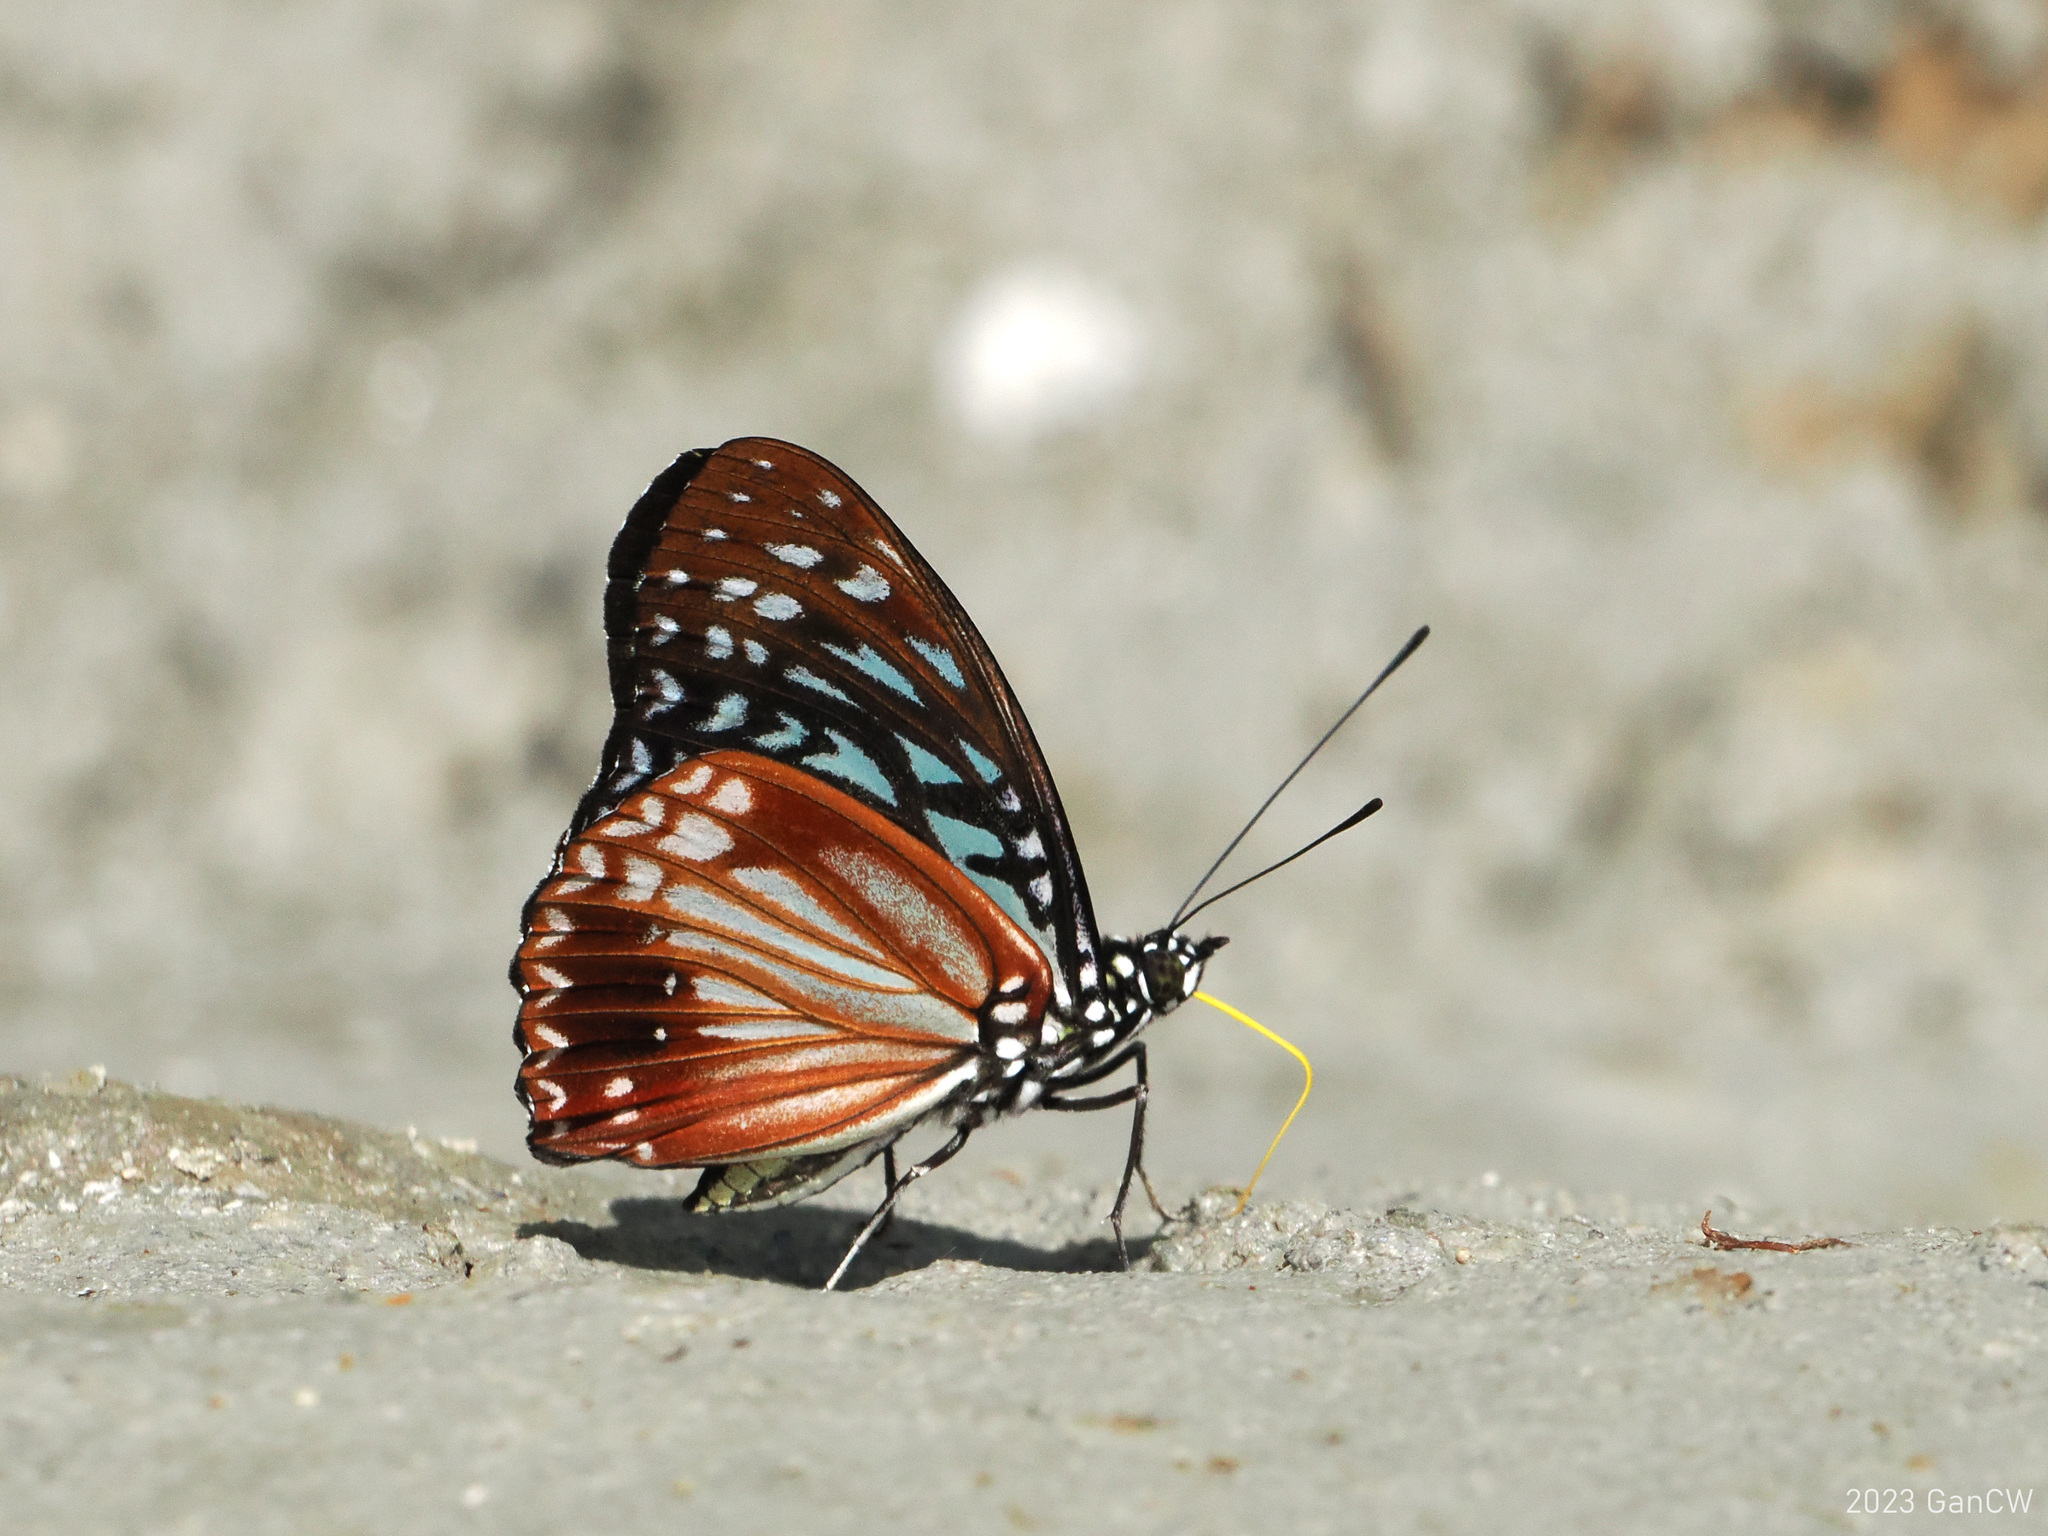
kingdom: Animalia
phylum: Arthropoda
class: Insecta
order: Lepidoptera
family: Nymphalidae
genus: Hestinalis
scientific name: Hestinalis nama
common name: Circe
